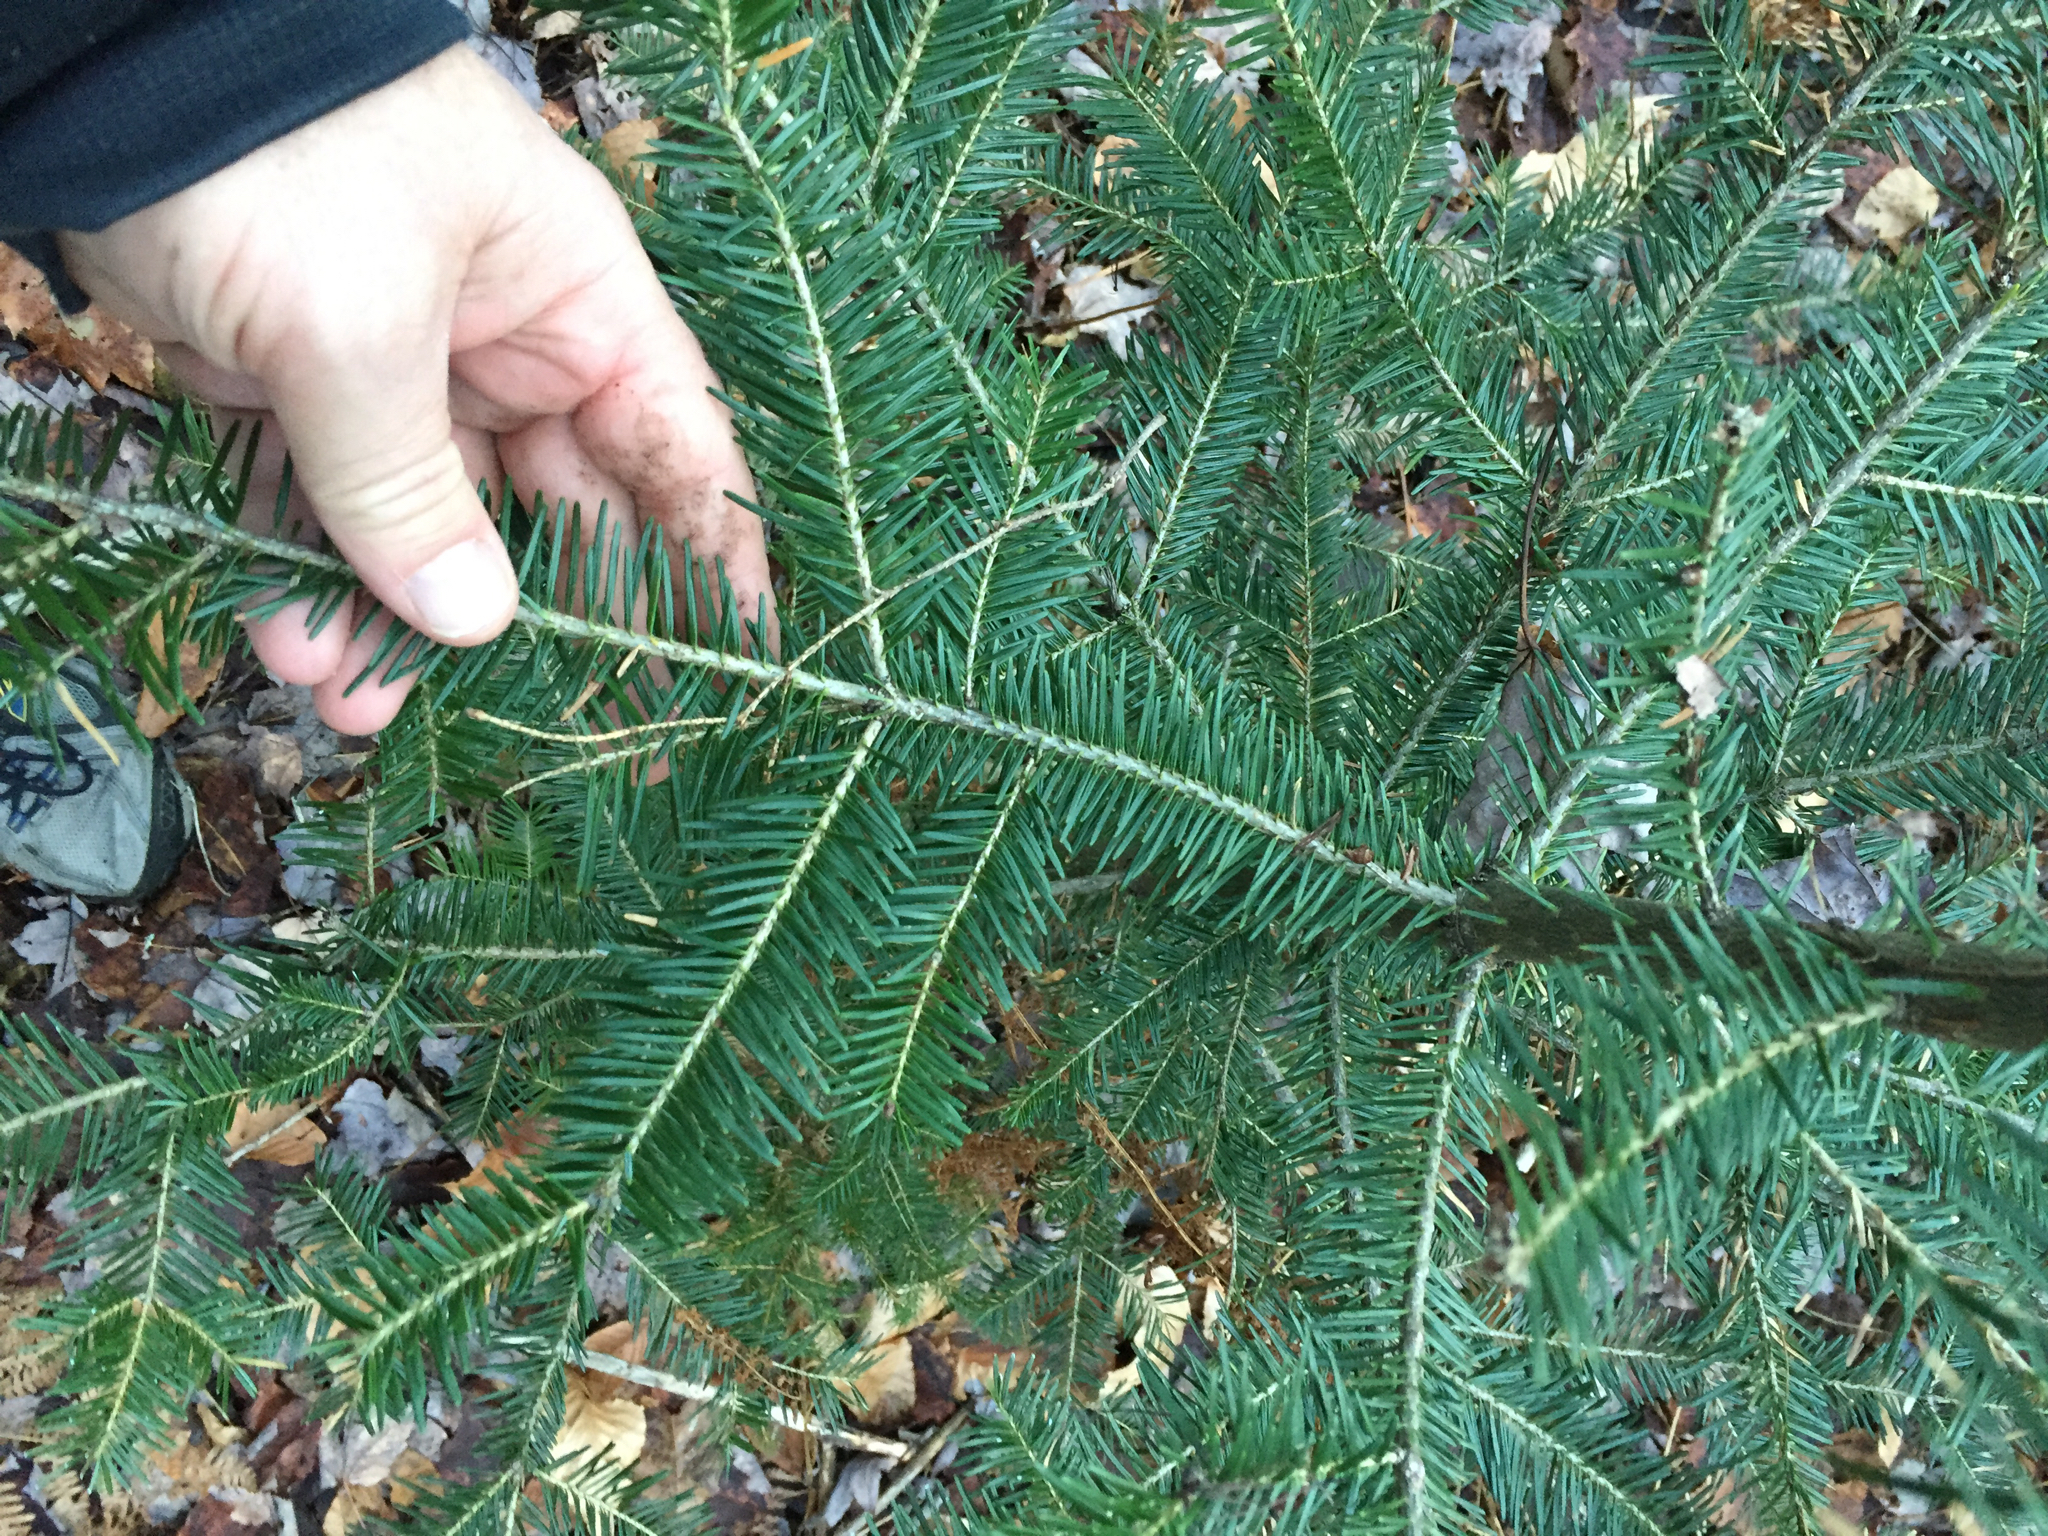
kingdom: Plantae
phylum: Tracheophyta
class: Pinopsida
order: Pinales
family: Pinaceae
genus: Abies
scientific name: Abies balsamea
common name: Balsam fir
